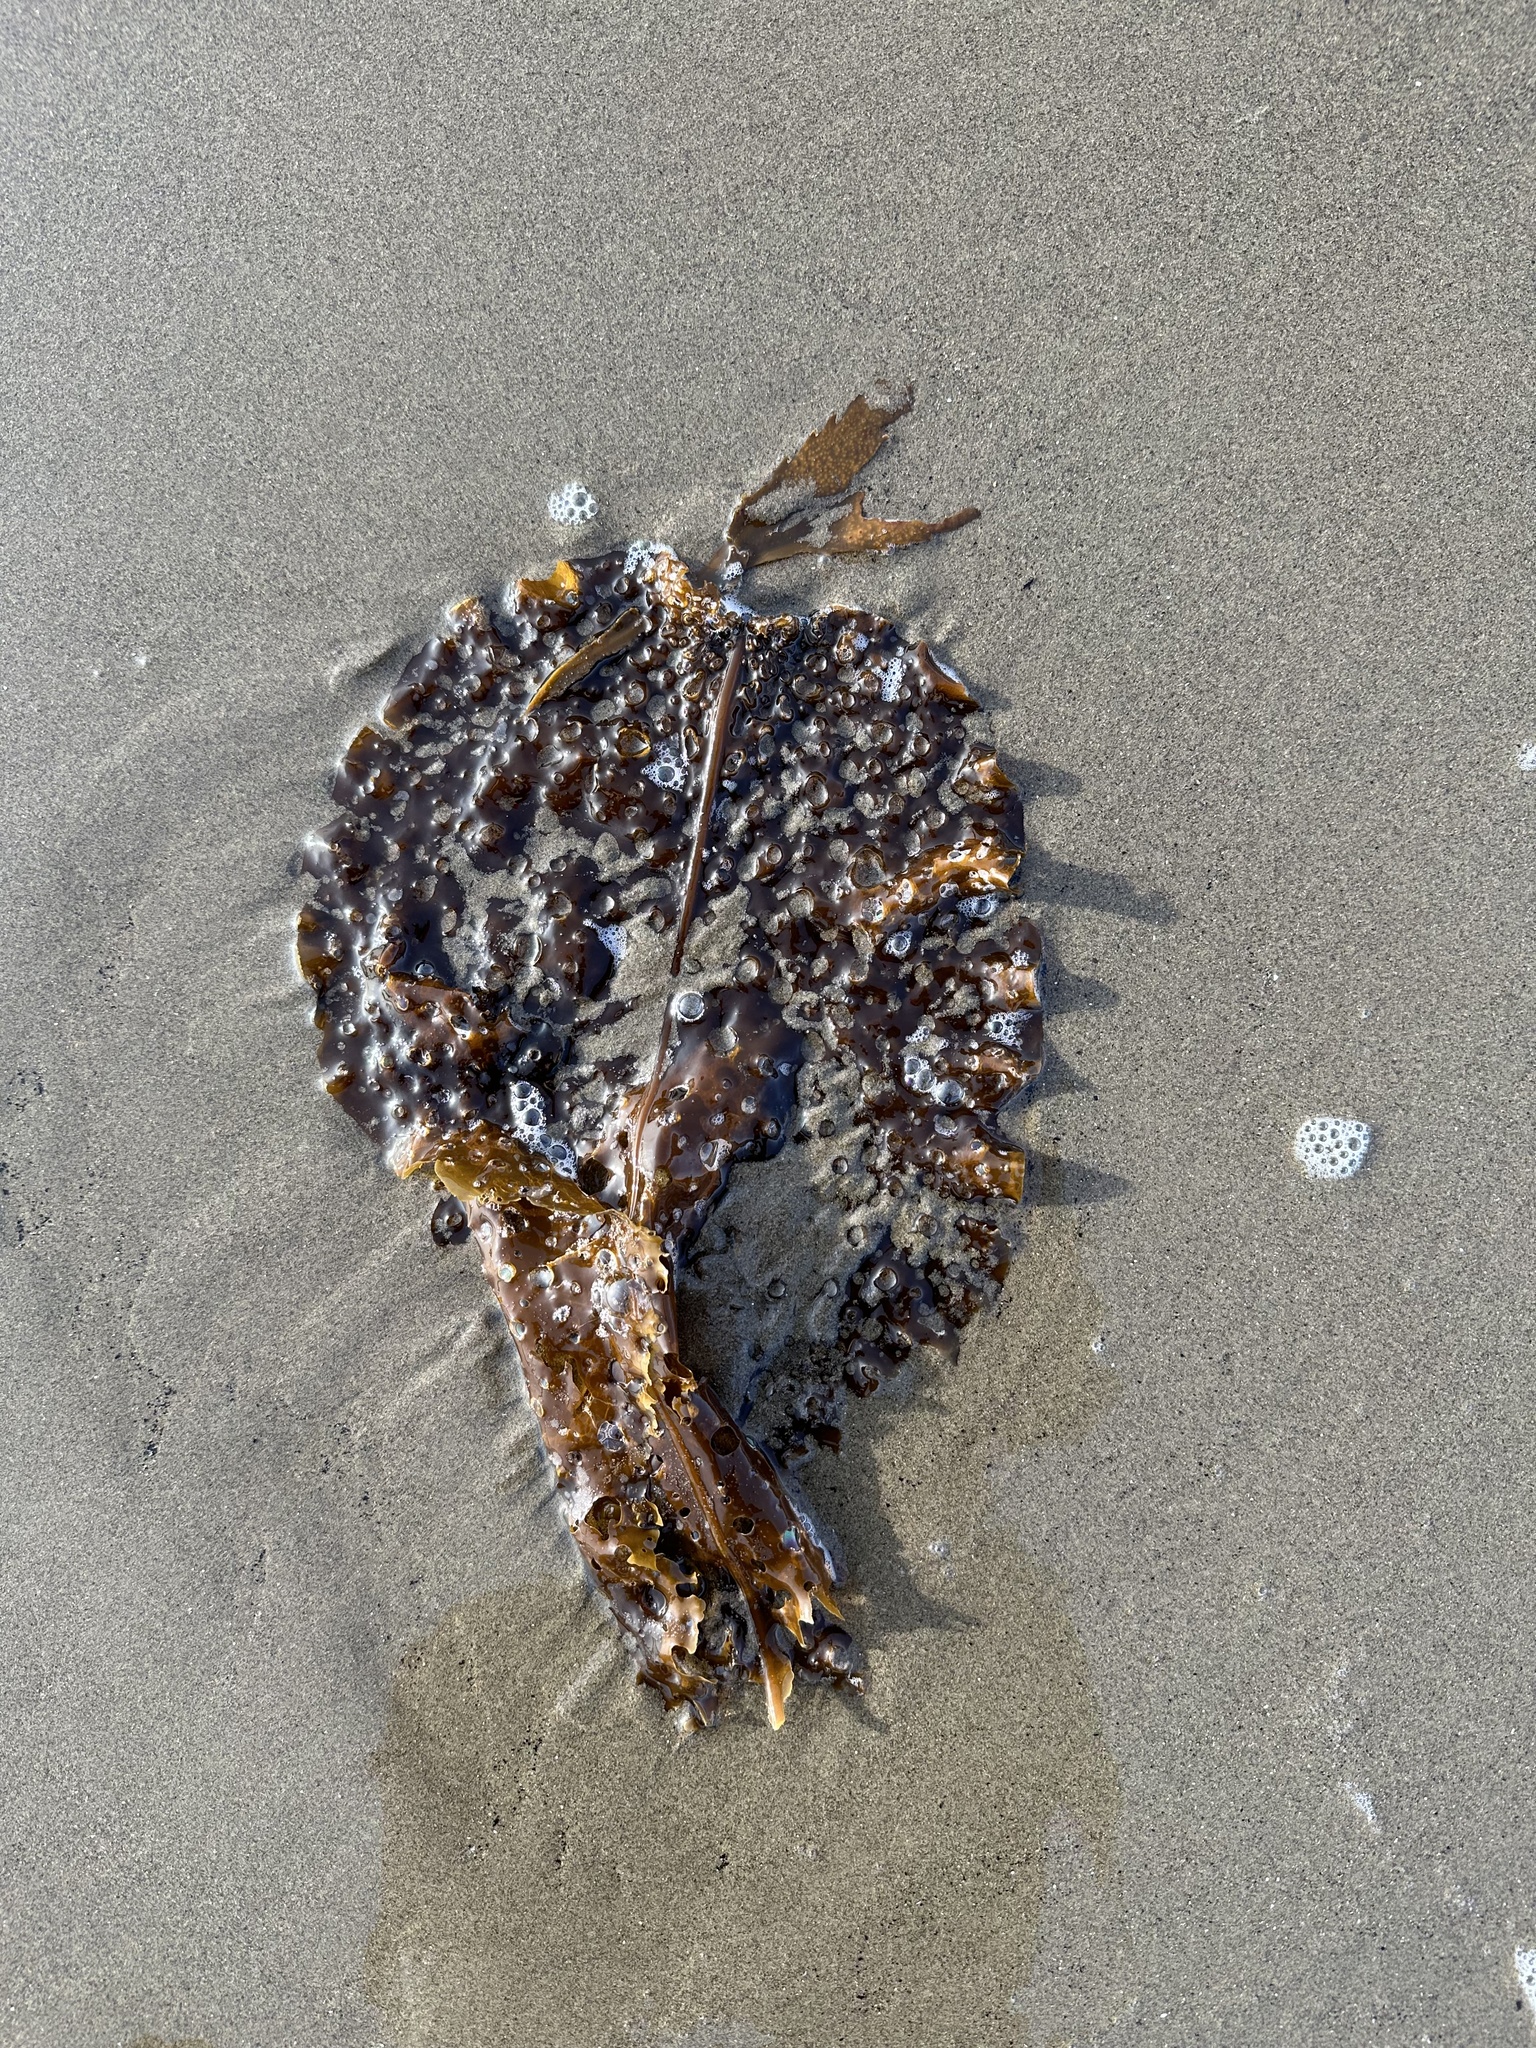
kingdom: Chromista
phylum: Ochrophyta
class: Phaeophyceae
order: Laminariales
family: Costariaceae
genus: Agarum
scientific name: Agarum clathratum
